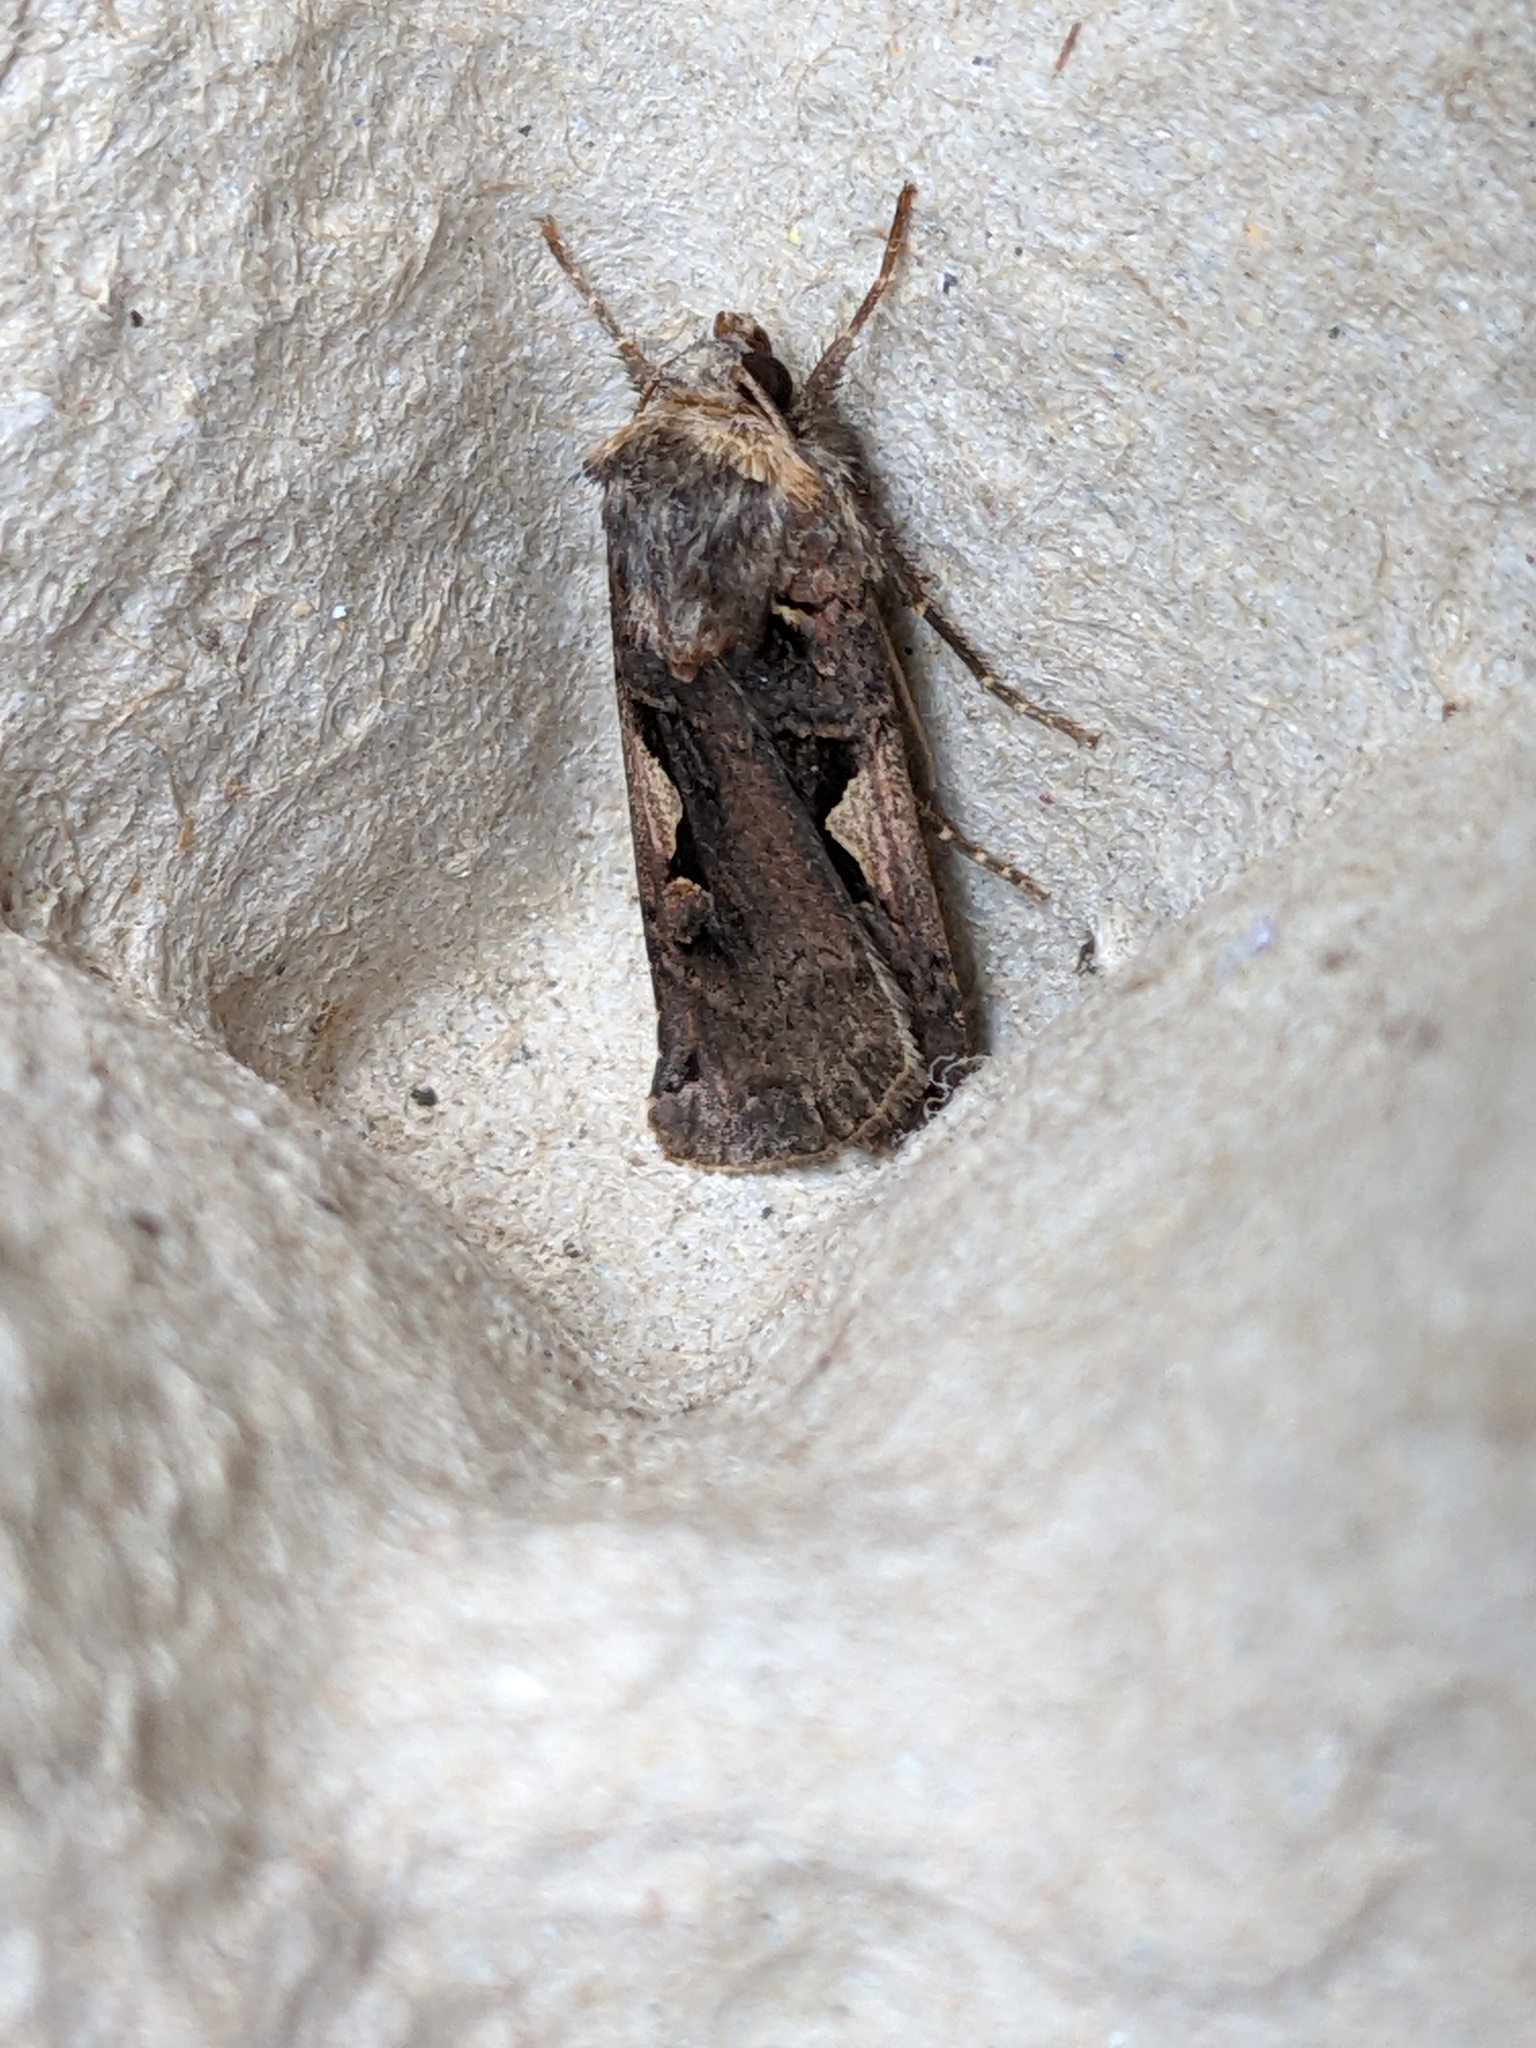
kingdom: Animalia
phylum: Arthropoda
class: Insecta
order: Lepidoptera
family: Noctuidae
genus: Xestia
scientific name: Xestia c-nigrum
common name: Setaceous hebrew character
